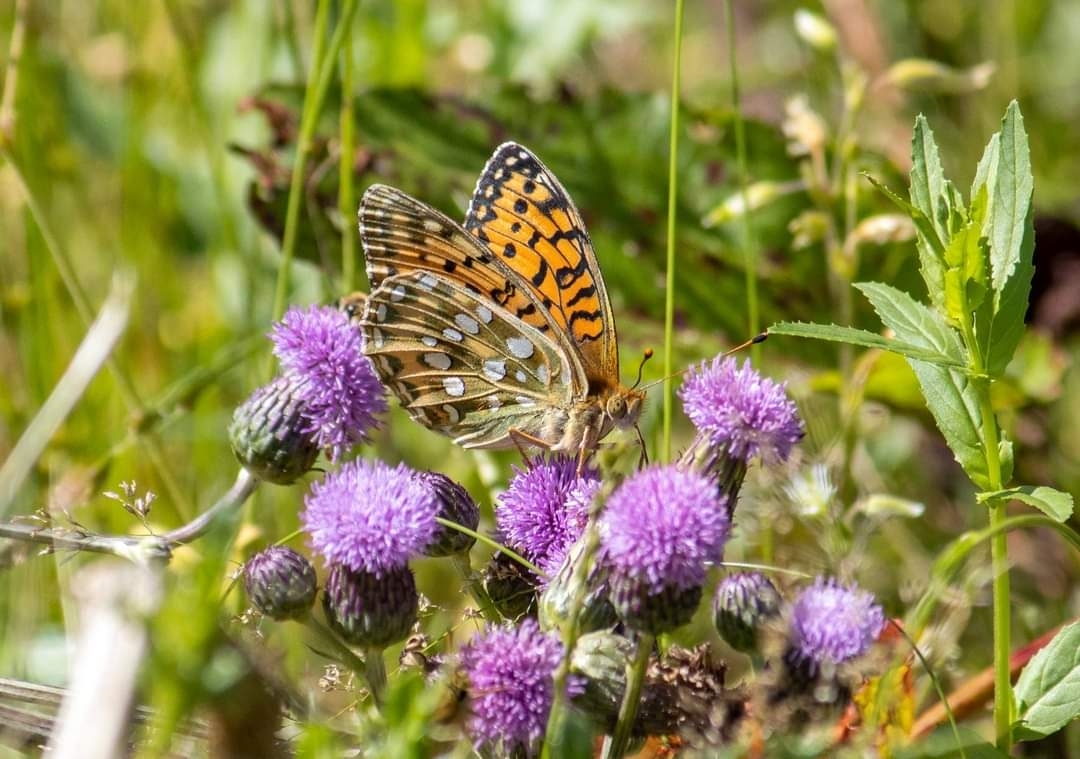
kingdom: Animalia
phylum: Arthropoda
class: Insecta
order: Lepidoptera
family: Nymphalidae
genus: Speyeria
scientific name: Speyeria aglaja
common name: Dark green fritillary
